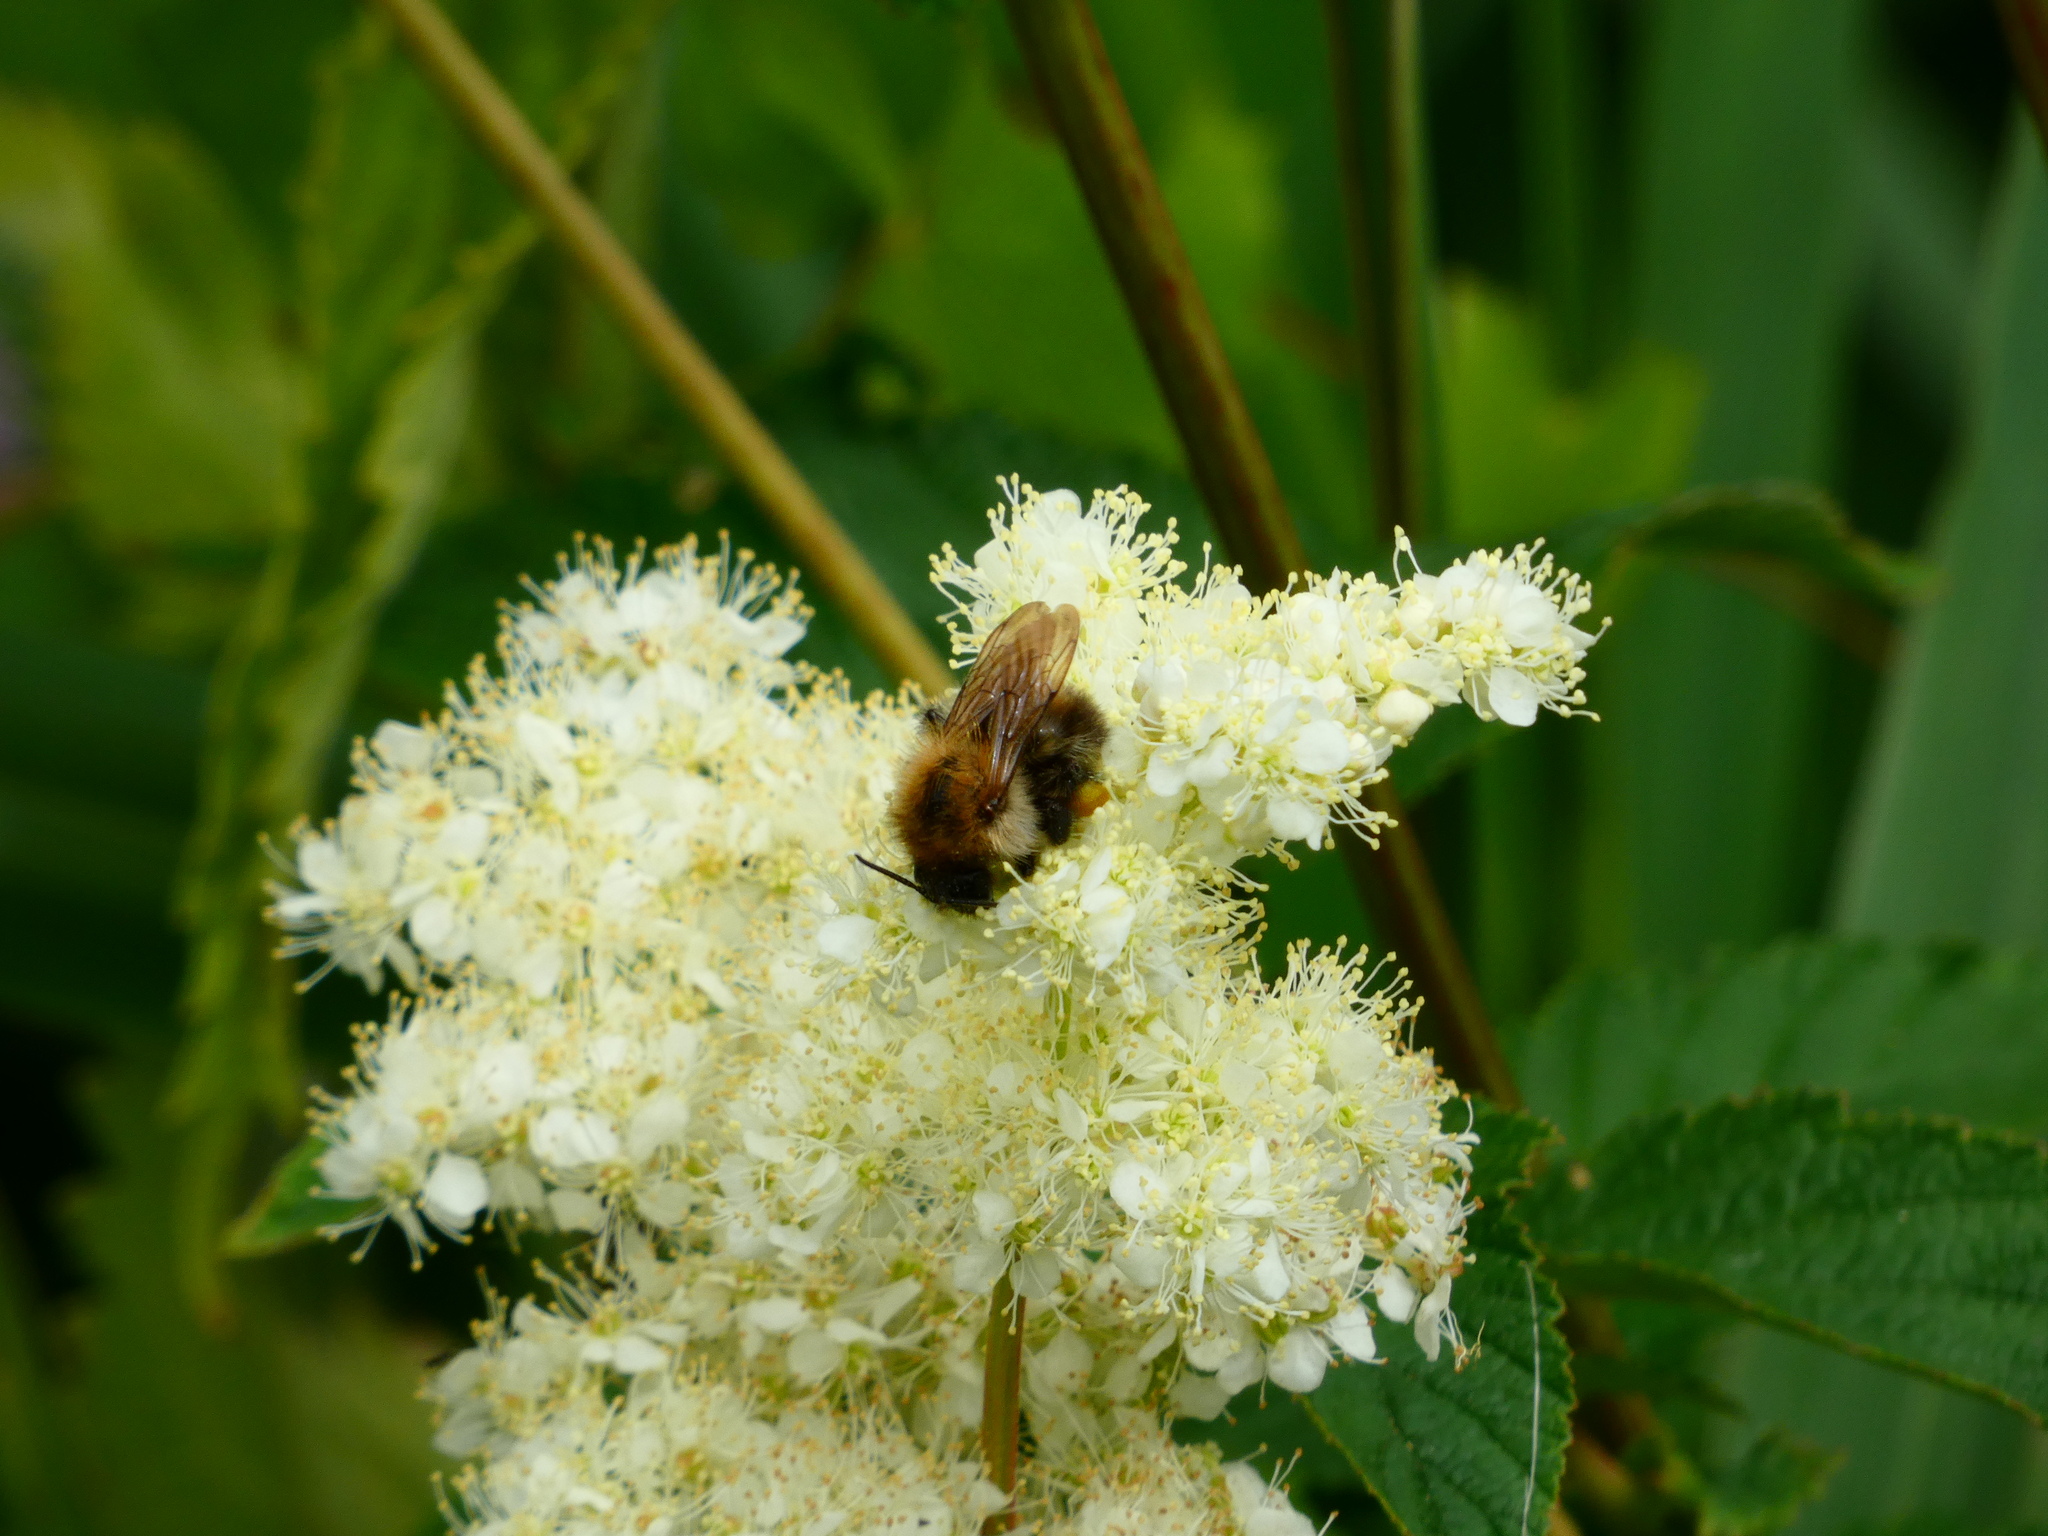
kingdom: Animalia
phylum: Arthropoda
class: Insecta
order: Hymenoptera
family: Apidae
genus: Bombus
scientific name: Bombus hypnorum
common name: New garden bumblebee
